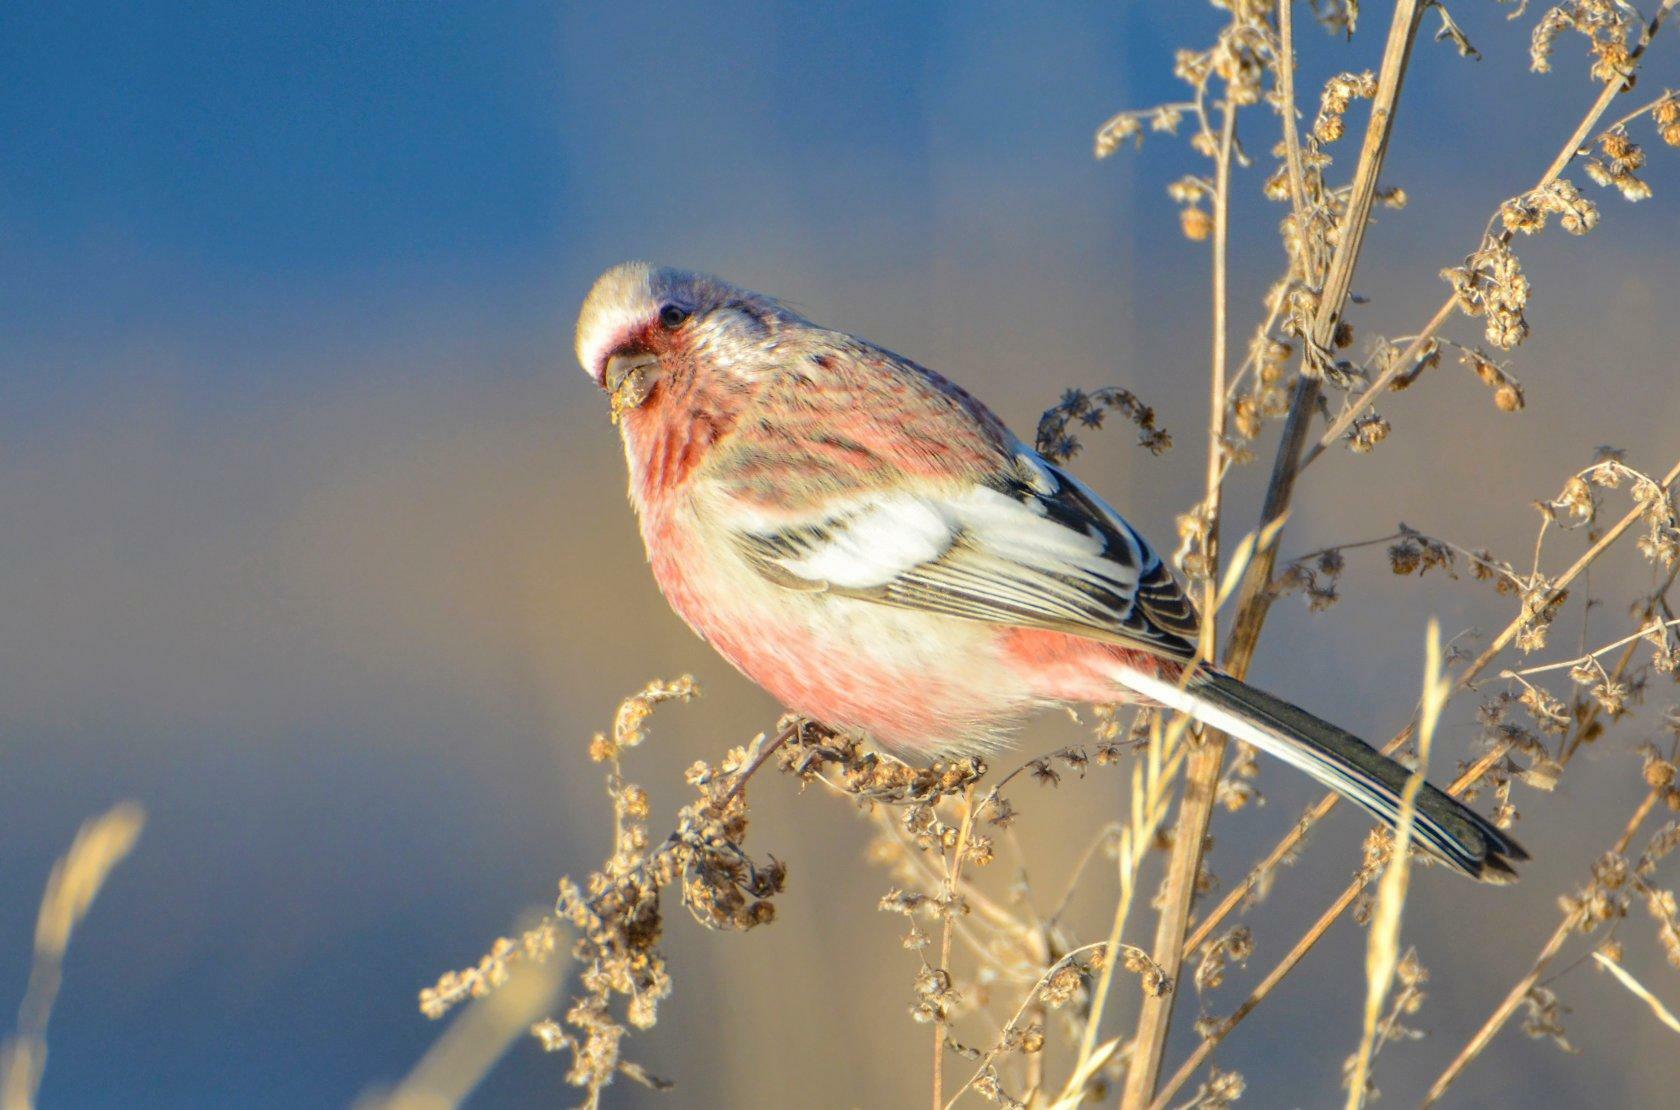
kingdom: Animalia
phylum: Chordata
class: Aves
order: Passeriformes
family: Fringillidae
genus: Carpodacus
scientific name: Carpodacus sibiricus
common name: Long-tailed rosefinch
